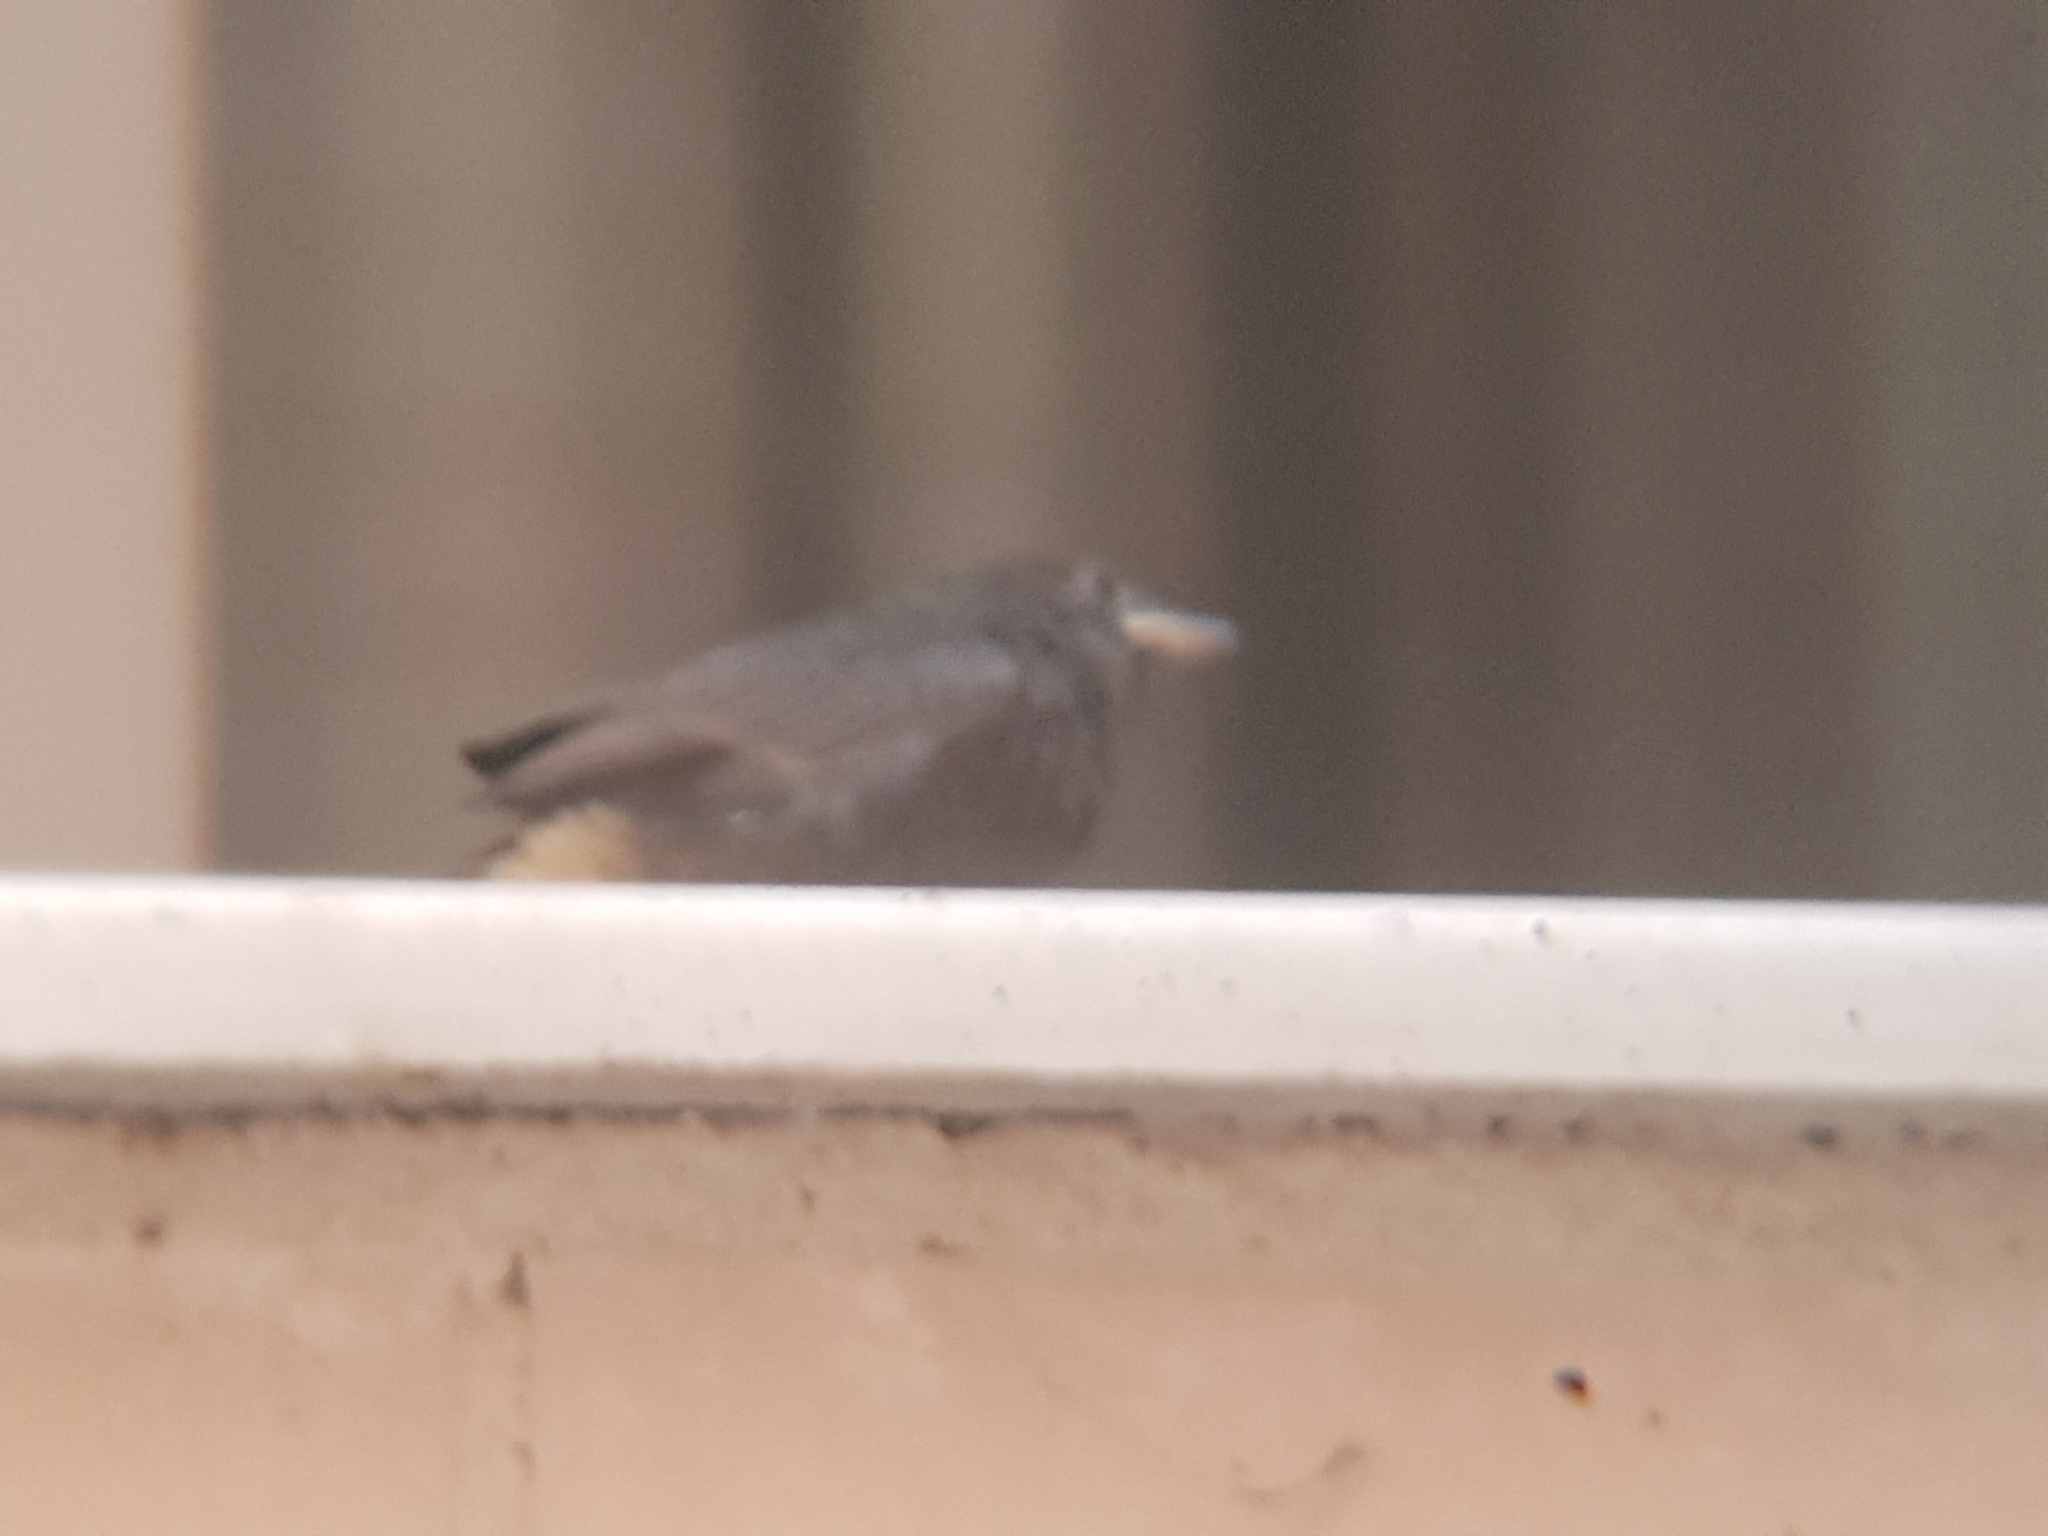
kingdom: Animalia
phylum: Chordata
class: Aves
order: Passeriformes
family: Muscicapidae
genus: Phoenicurus
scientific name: Phoenicurus ochruros
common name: Black redstart
